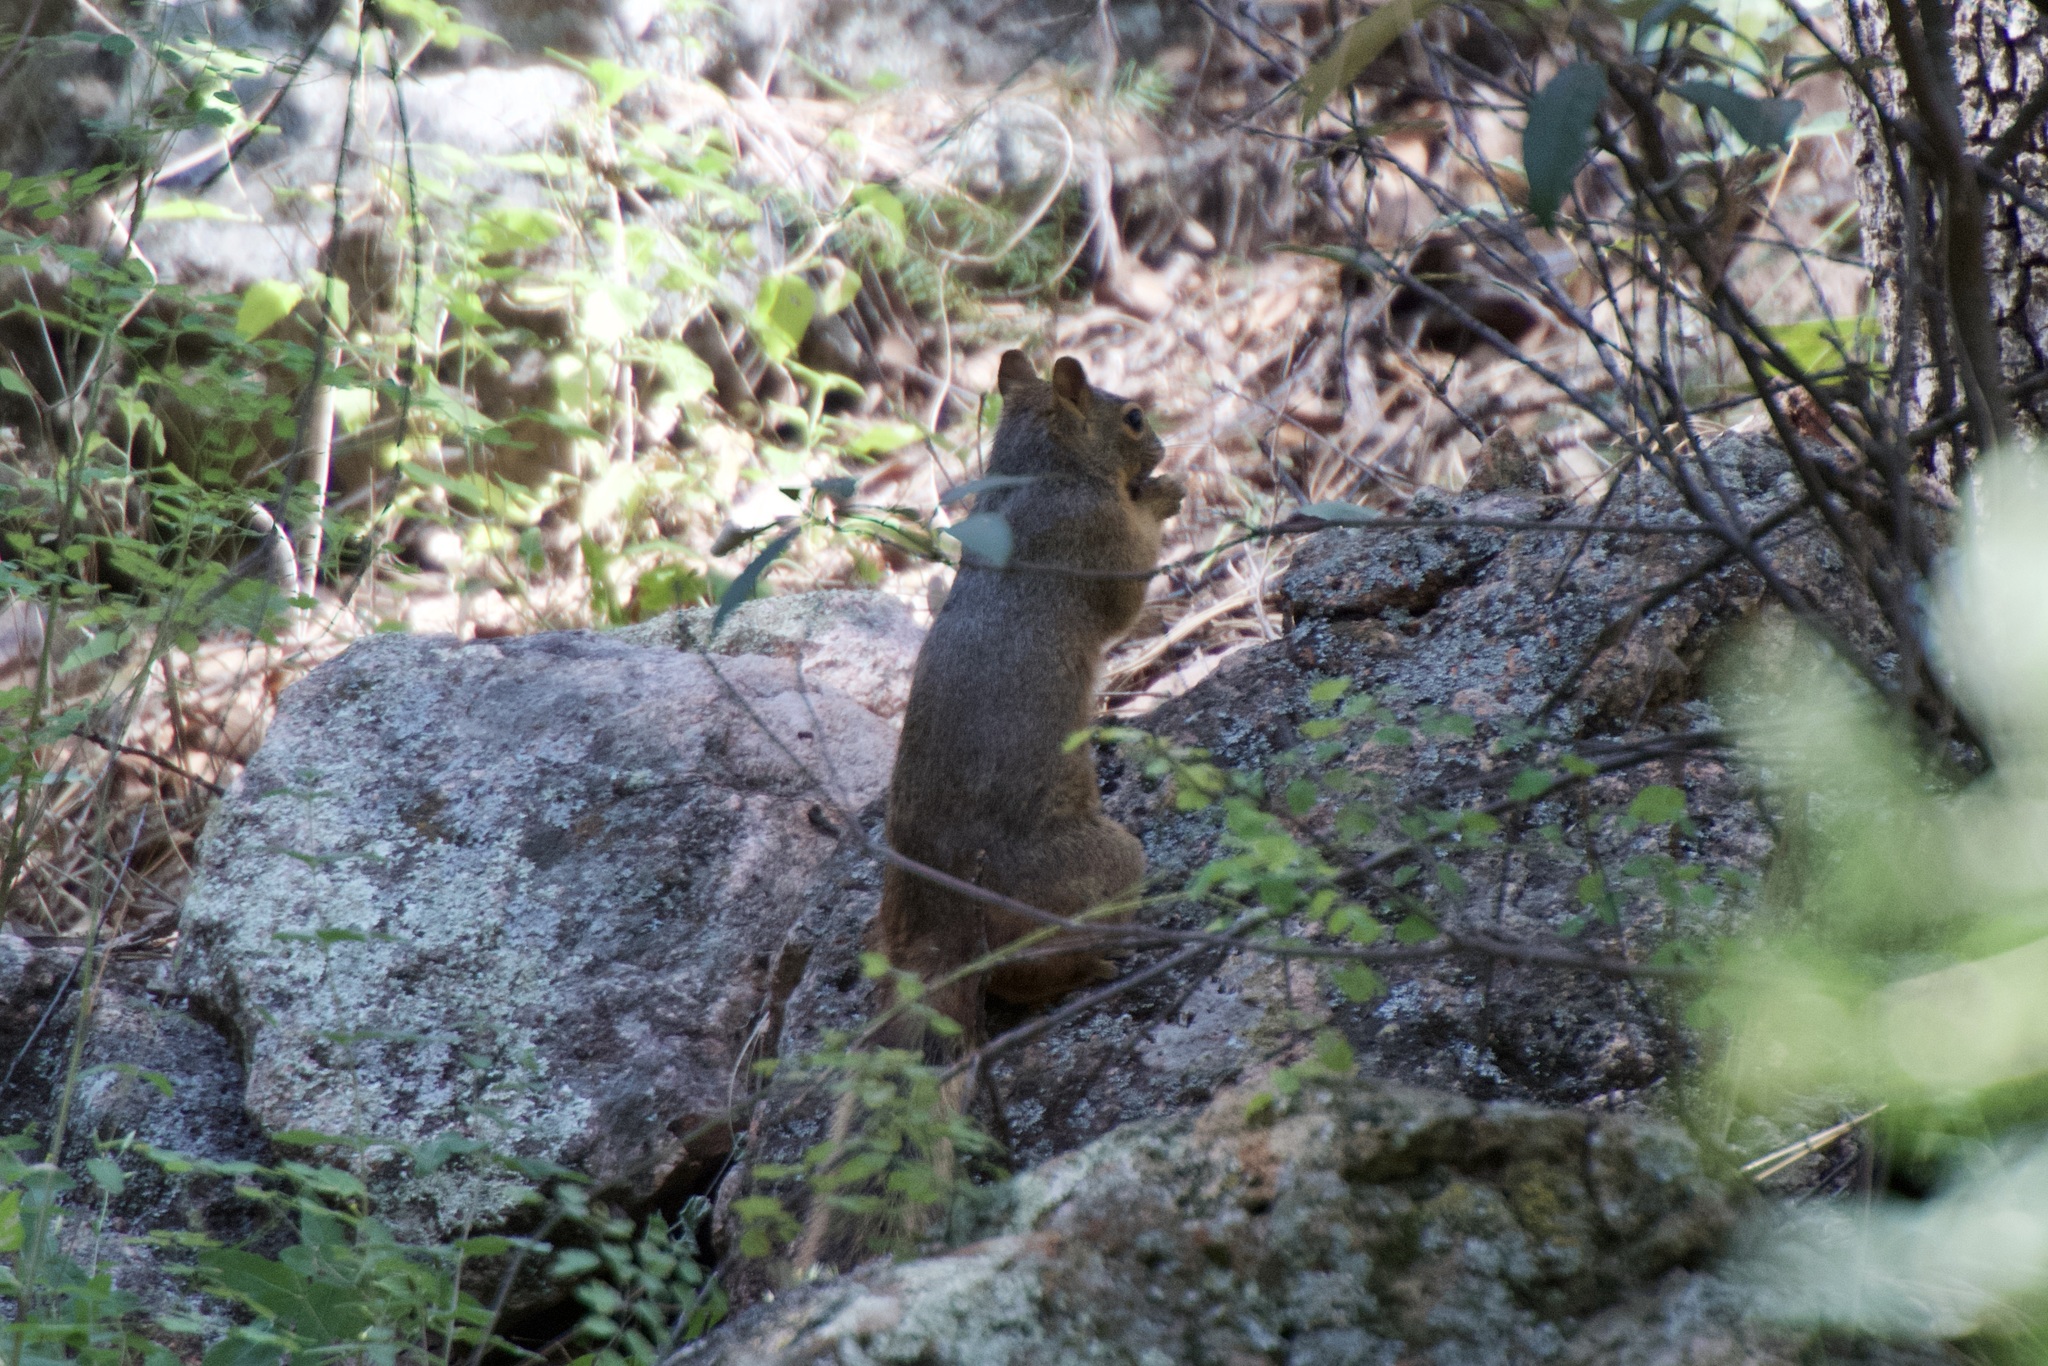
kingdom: Animalia
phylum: Chordata
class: Mammalia
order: Rodentia
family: Sciuridae
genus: Sciurus
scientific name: Sciurus nayaritensis
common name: Mexican fox squirrel
